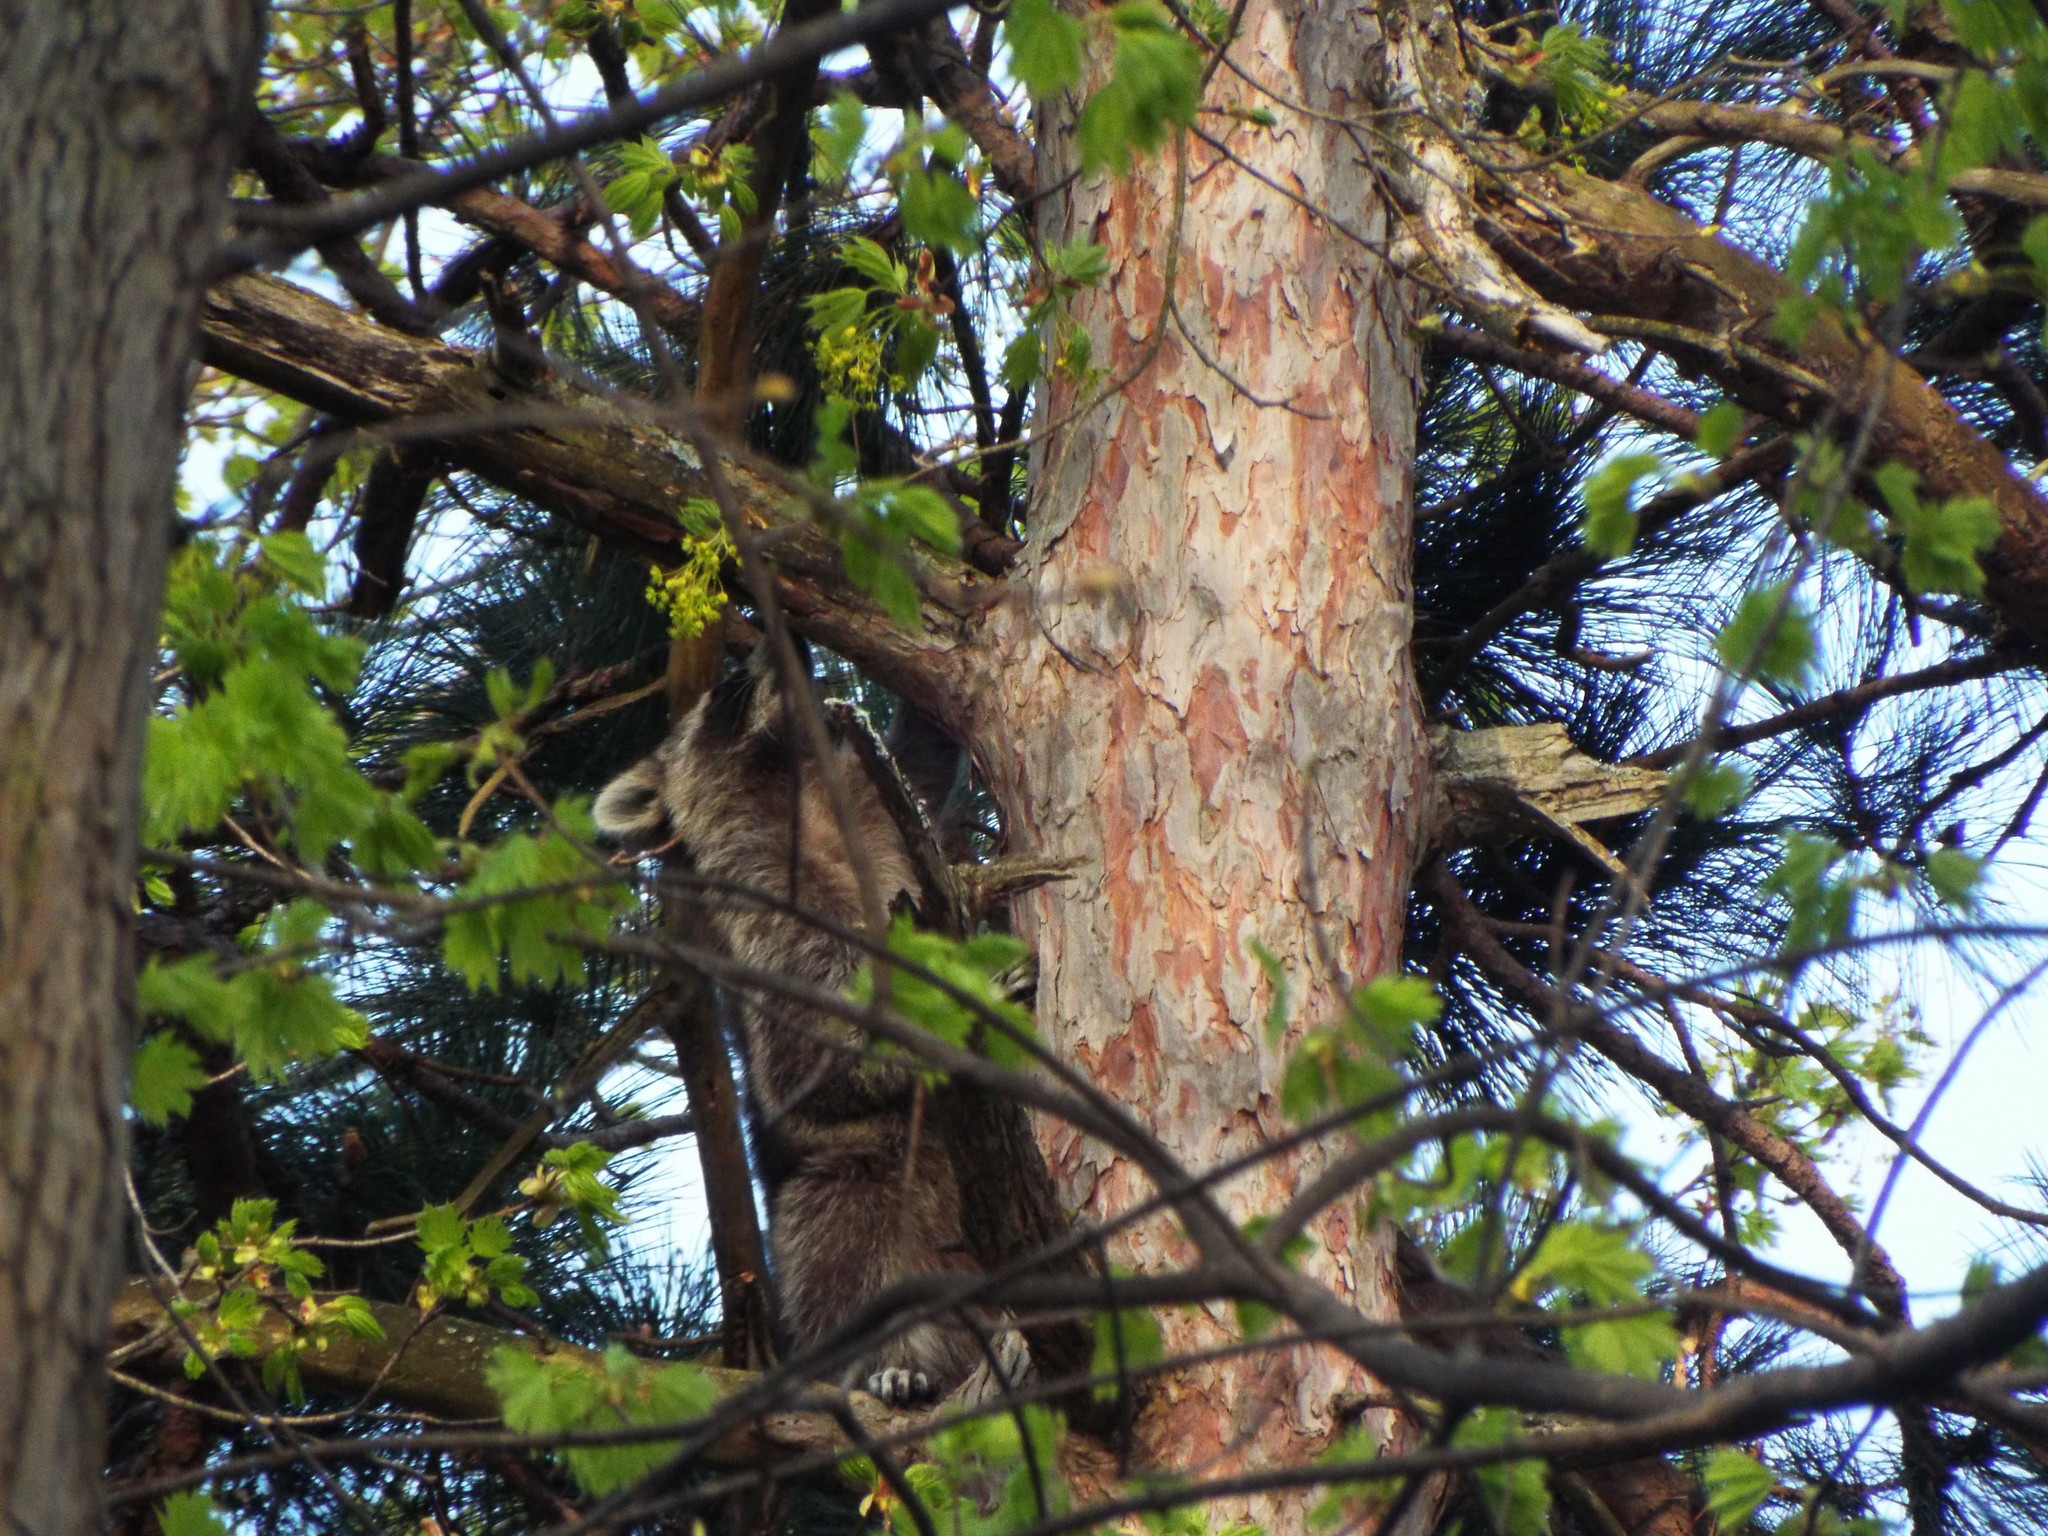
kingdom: Animalia
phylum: Chordata
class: Mammalia
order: Carnivora
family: Procyonidae
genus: Procyon
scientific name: Procyon lotor
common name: Raccoon
